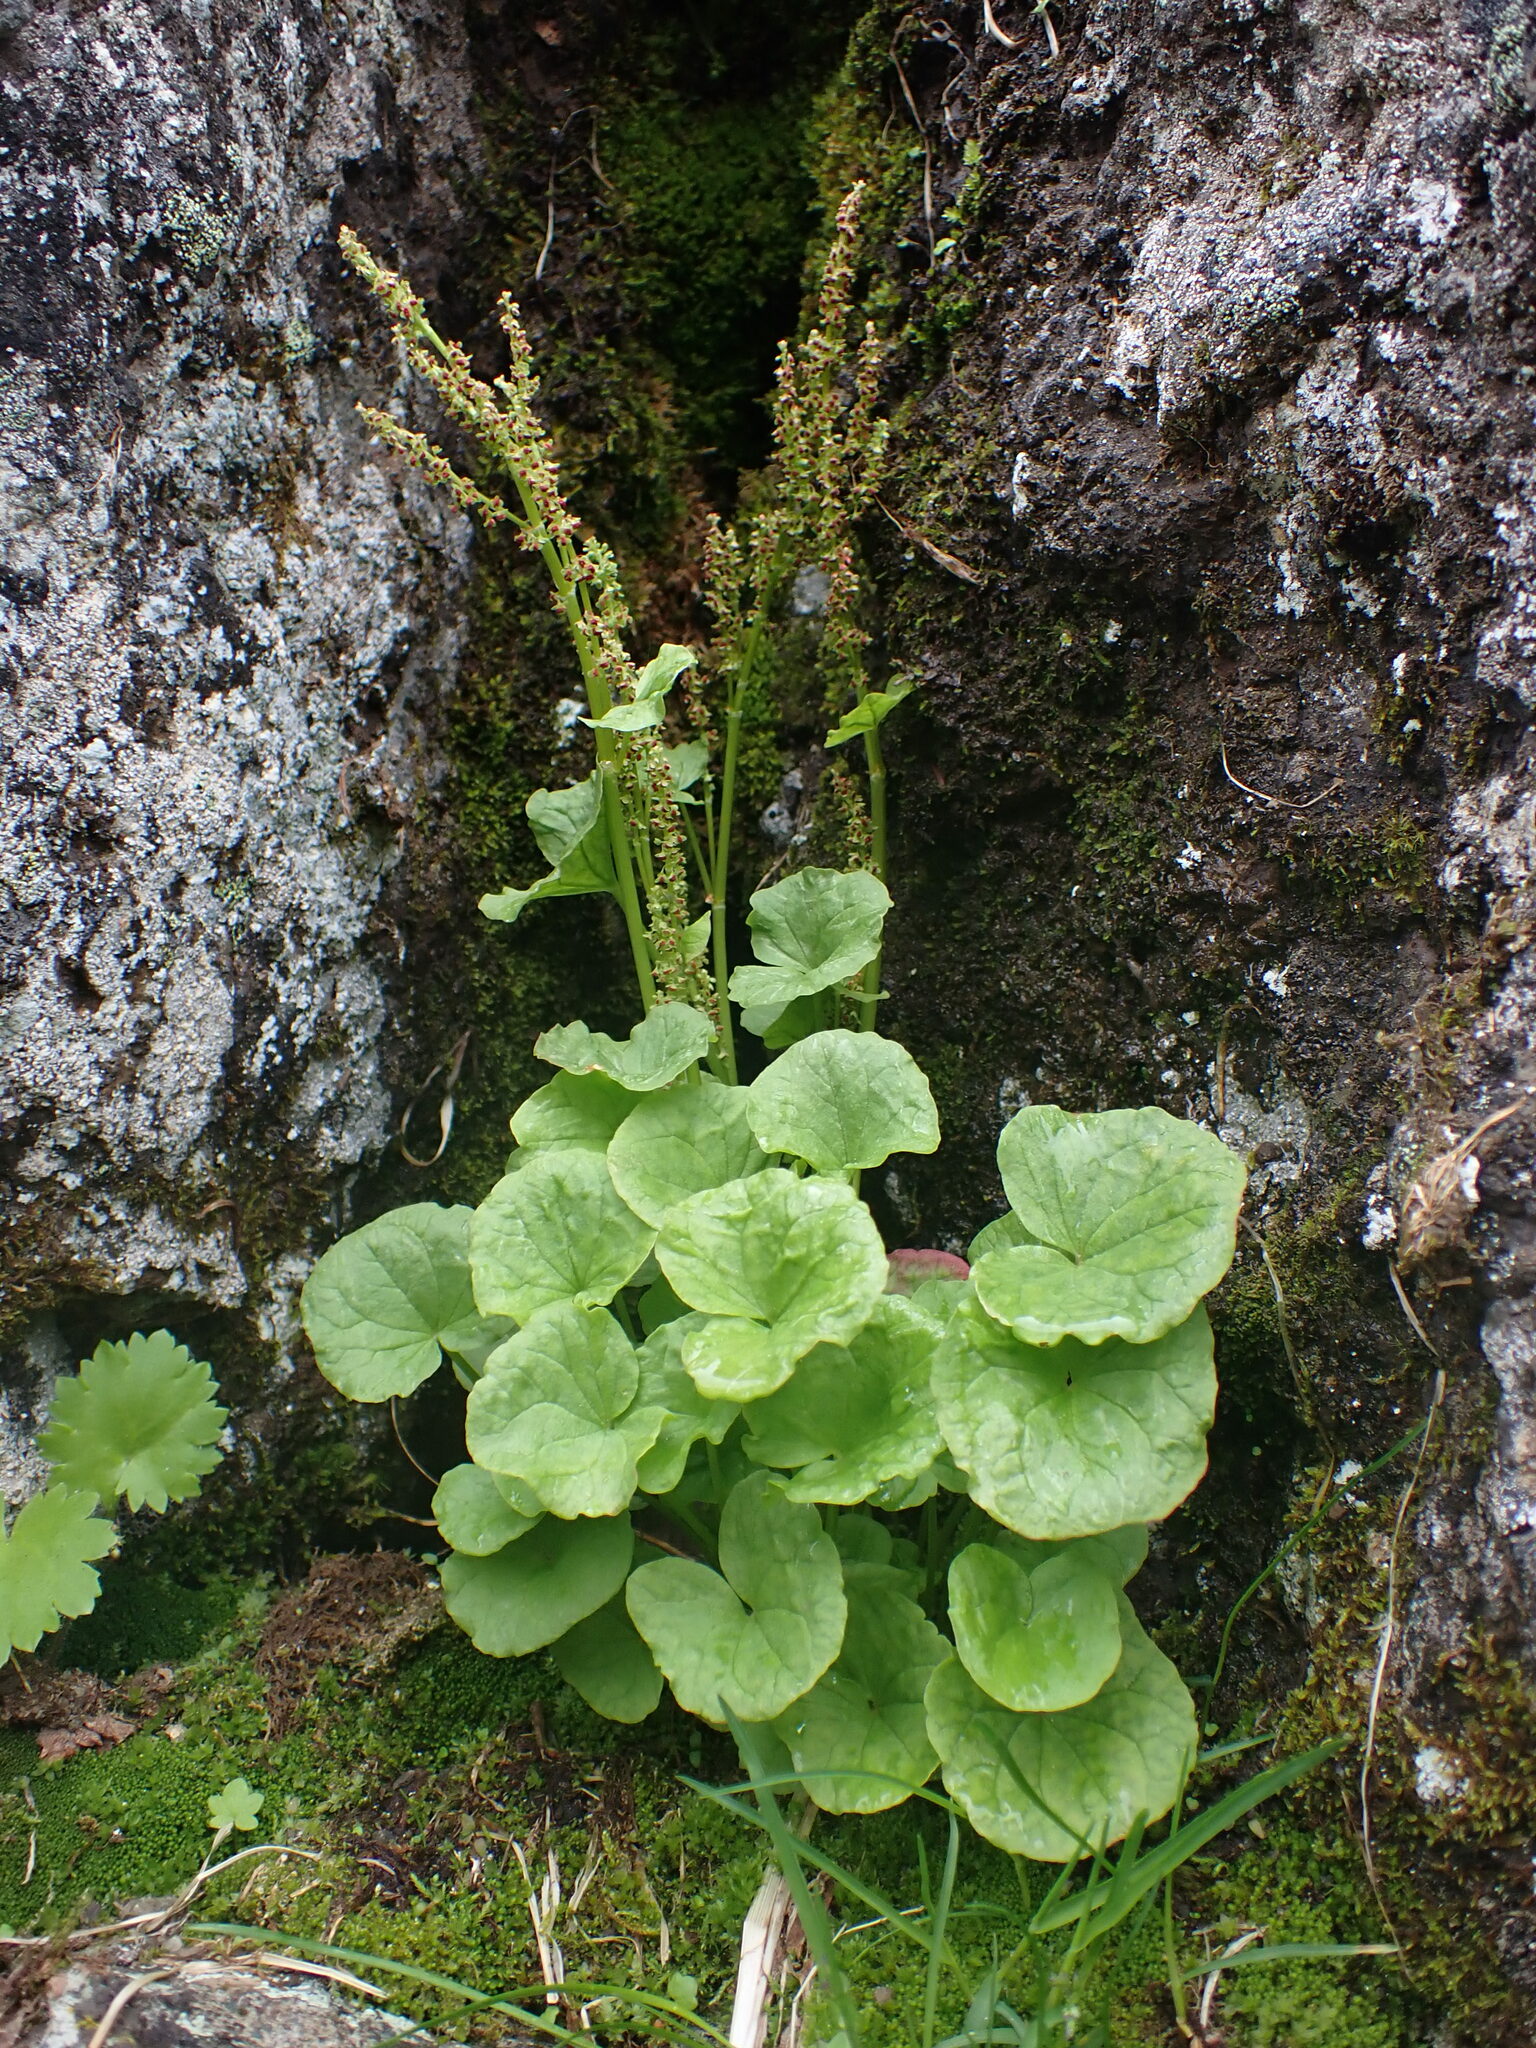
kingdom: Plantae
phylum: Tracheophyta
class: Magnoliopsida
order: Caryophyllales
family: Polygonaceae
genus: Oxyria
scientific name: Oxyria digyna
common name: Alpine mountain-sorrel
